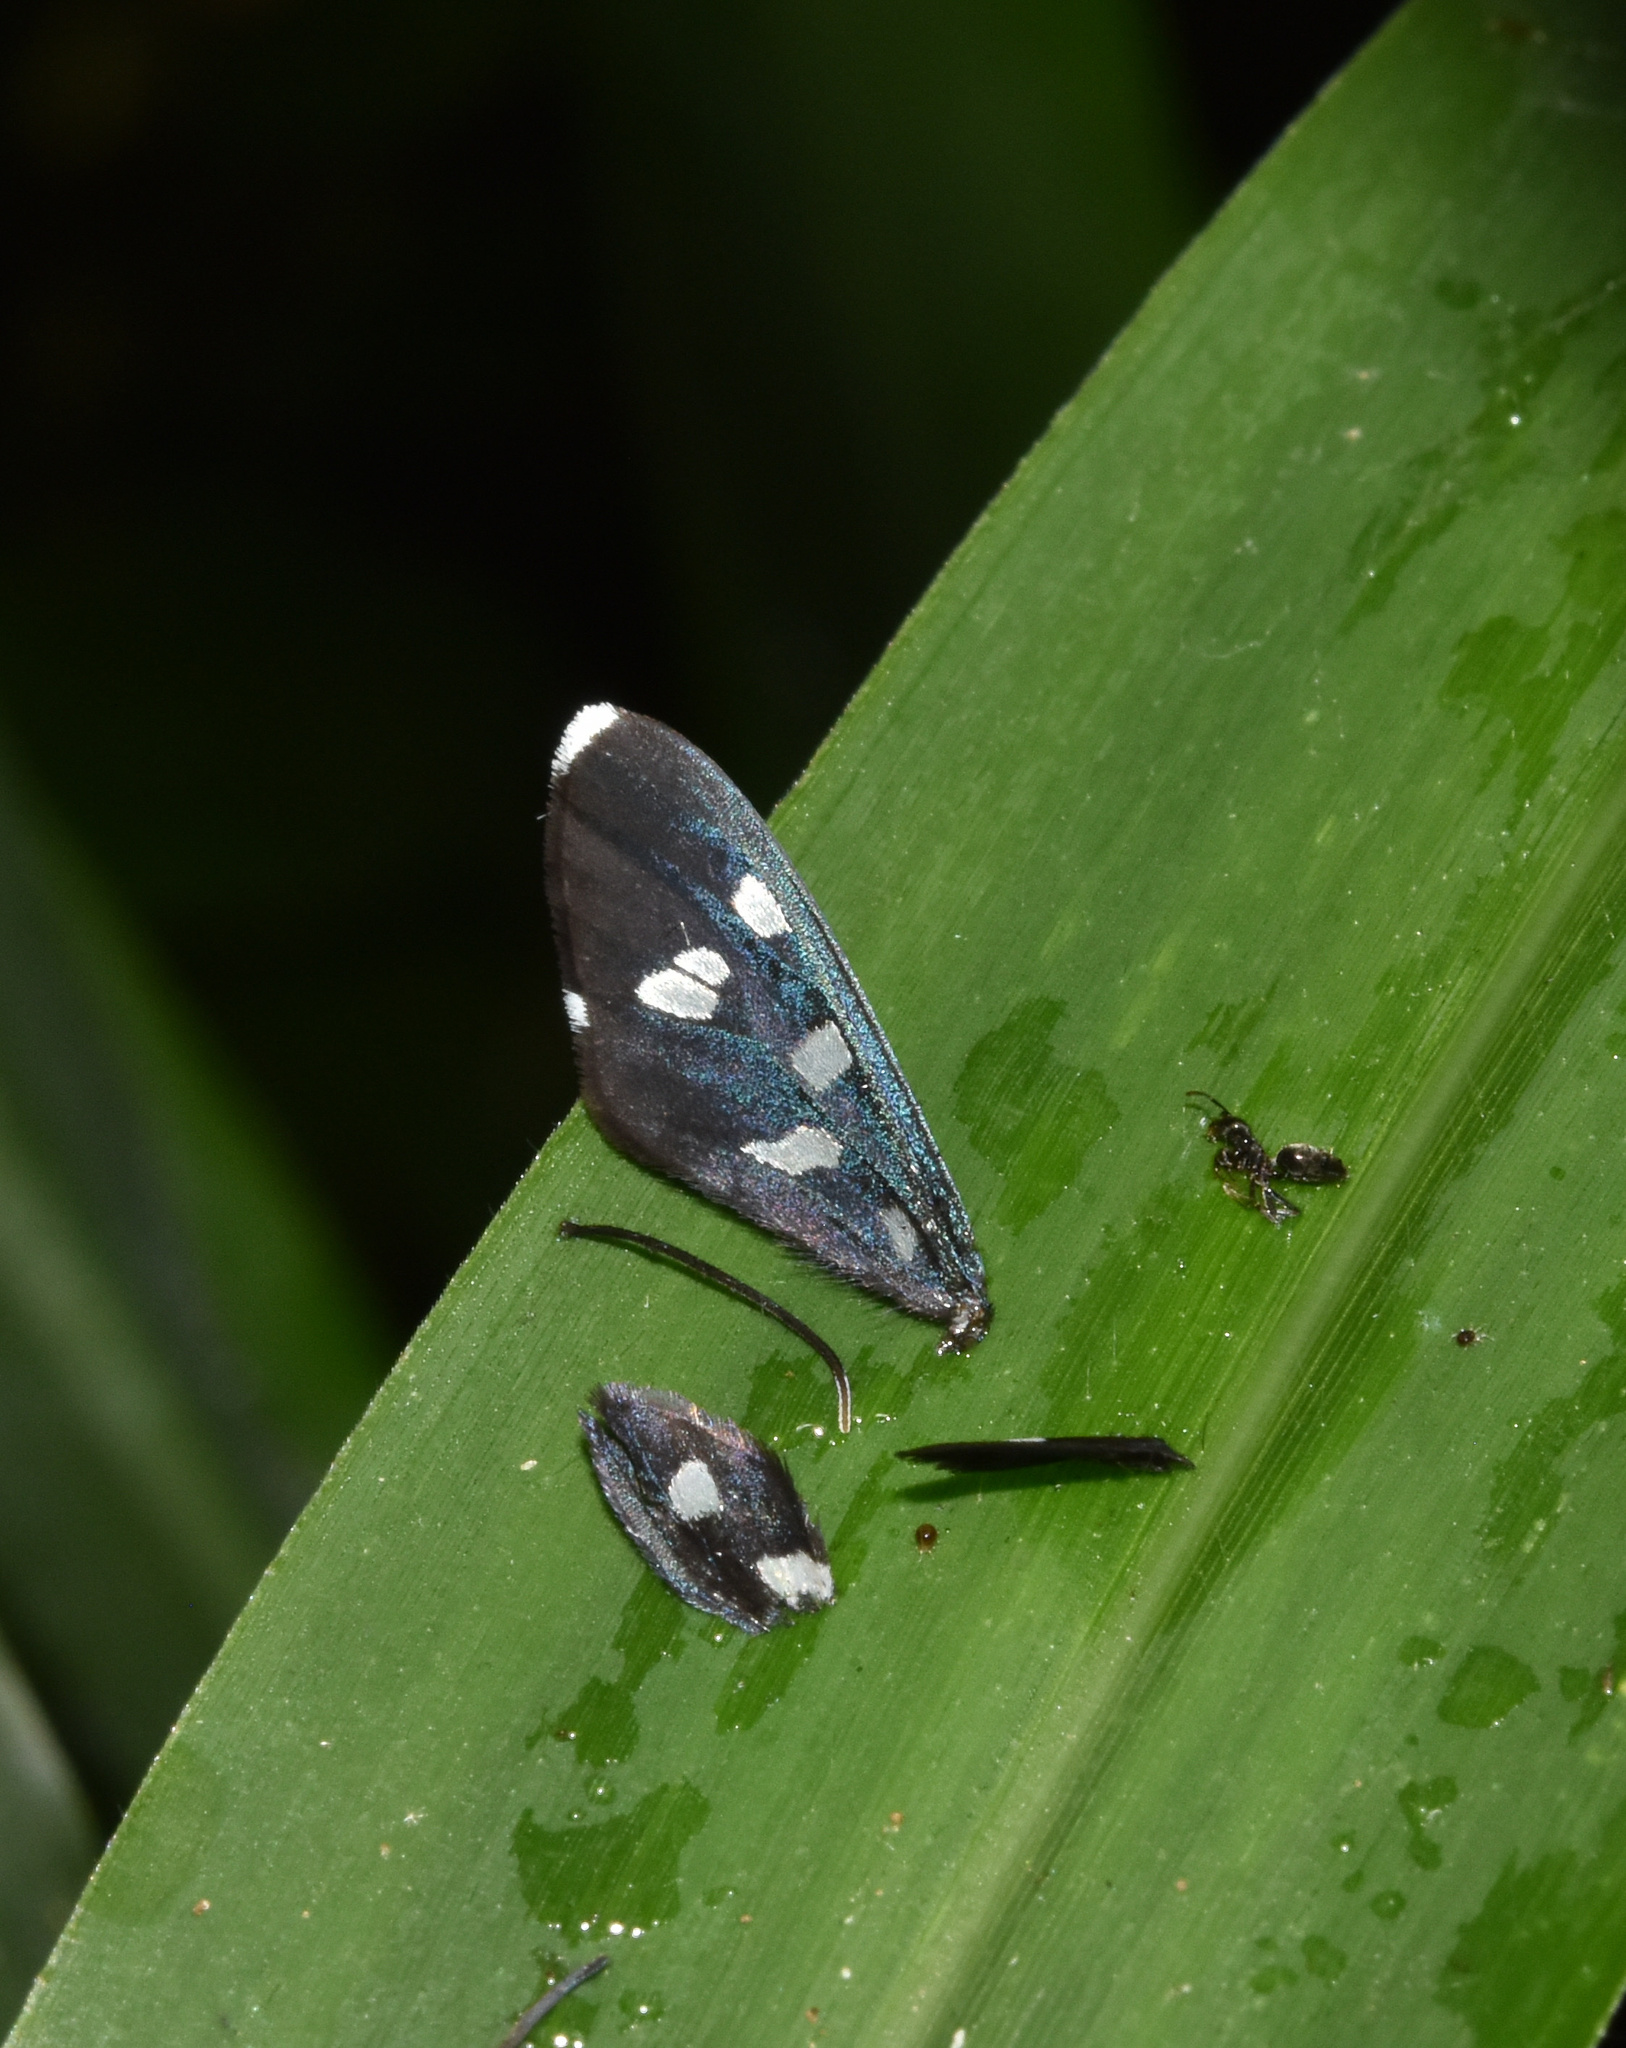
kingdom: Animalia
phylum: Arthropoda
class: Insecta
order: Lepidoptera
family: Erebidae
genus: Ceryx
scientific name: Ceryx longipes
